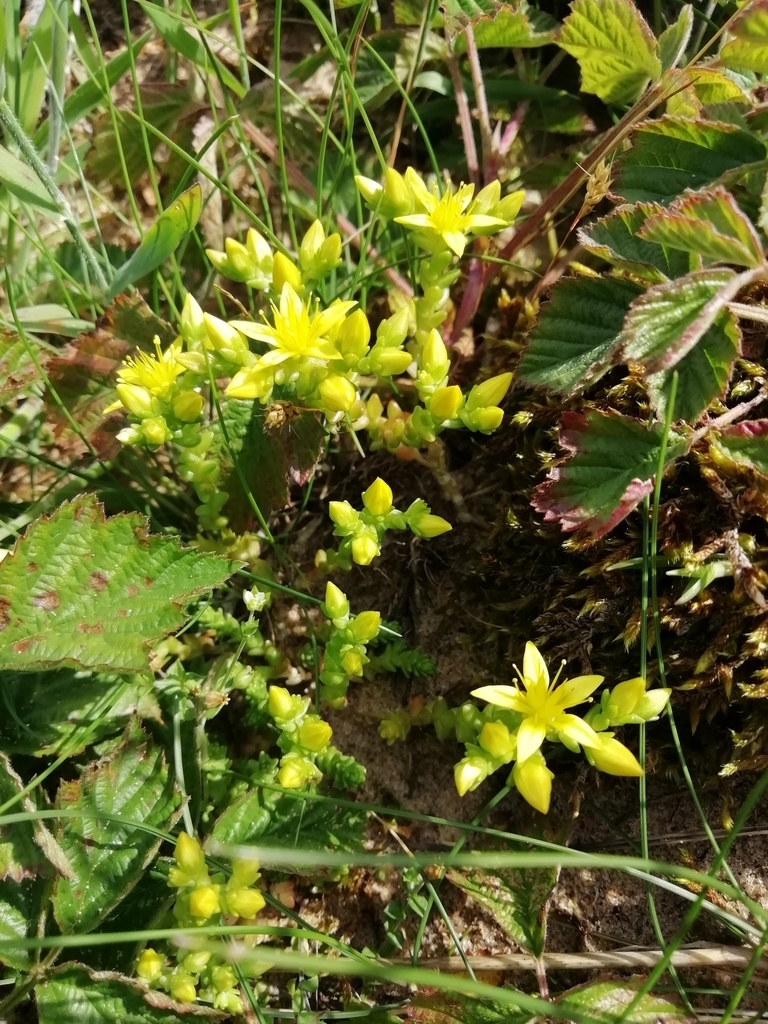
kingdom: Plantae
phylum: Tracheophyta
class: Magnoliopsida
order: Saxifragales
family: Crassulaceae
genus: Sedum
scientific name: Sedum acre
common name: Biting stonecrop
